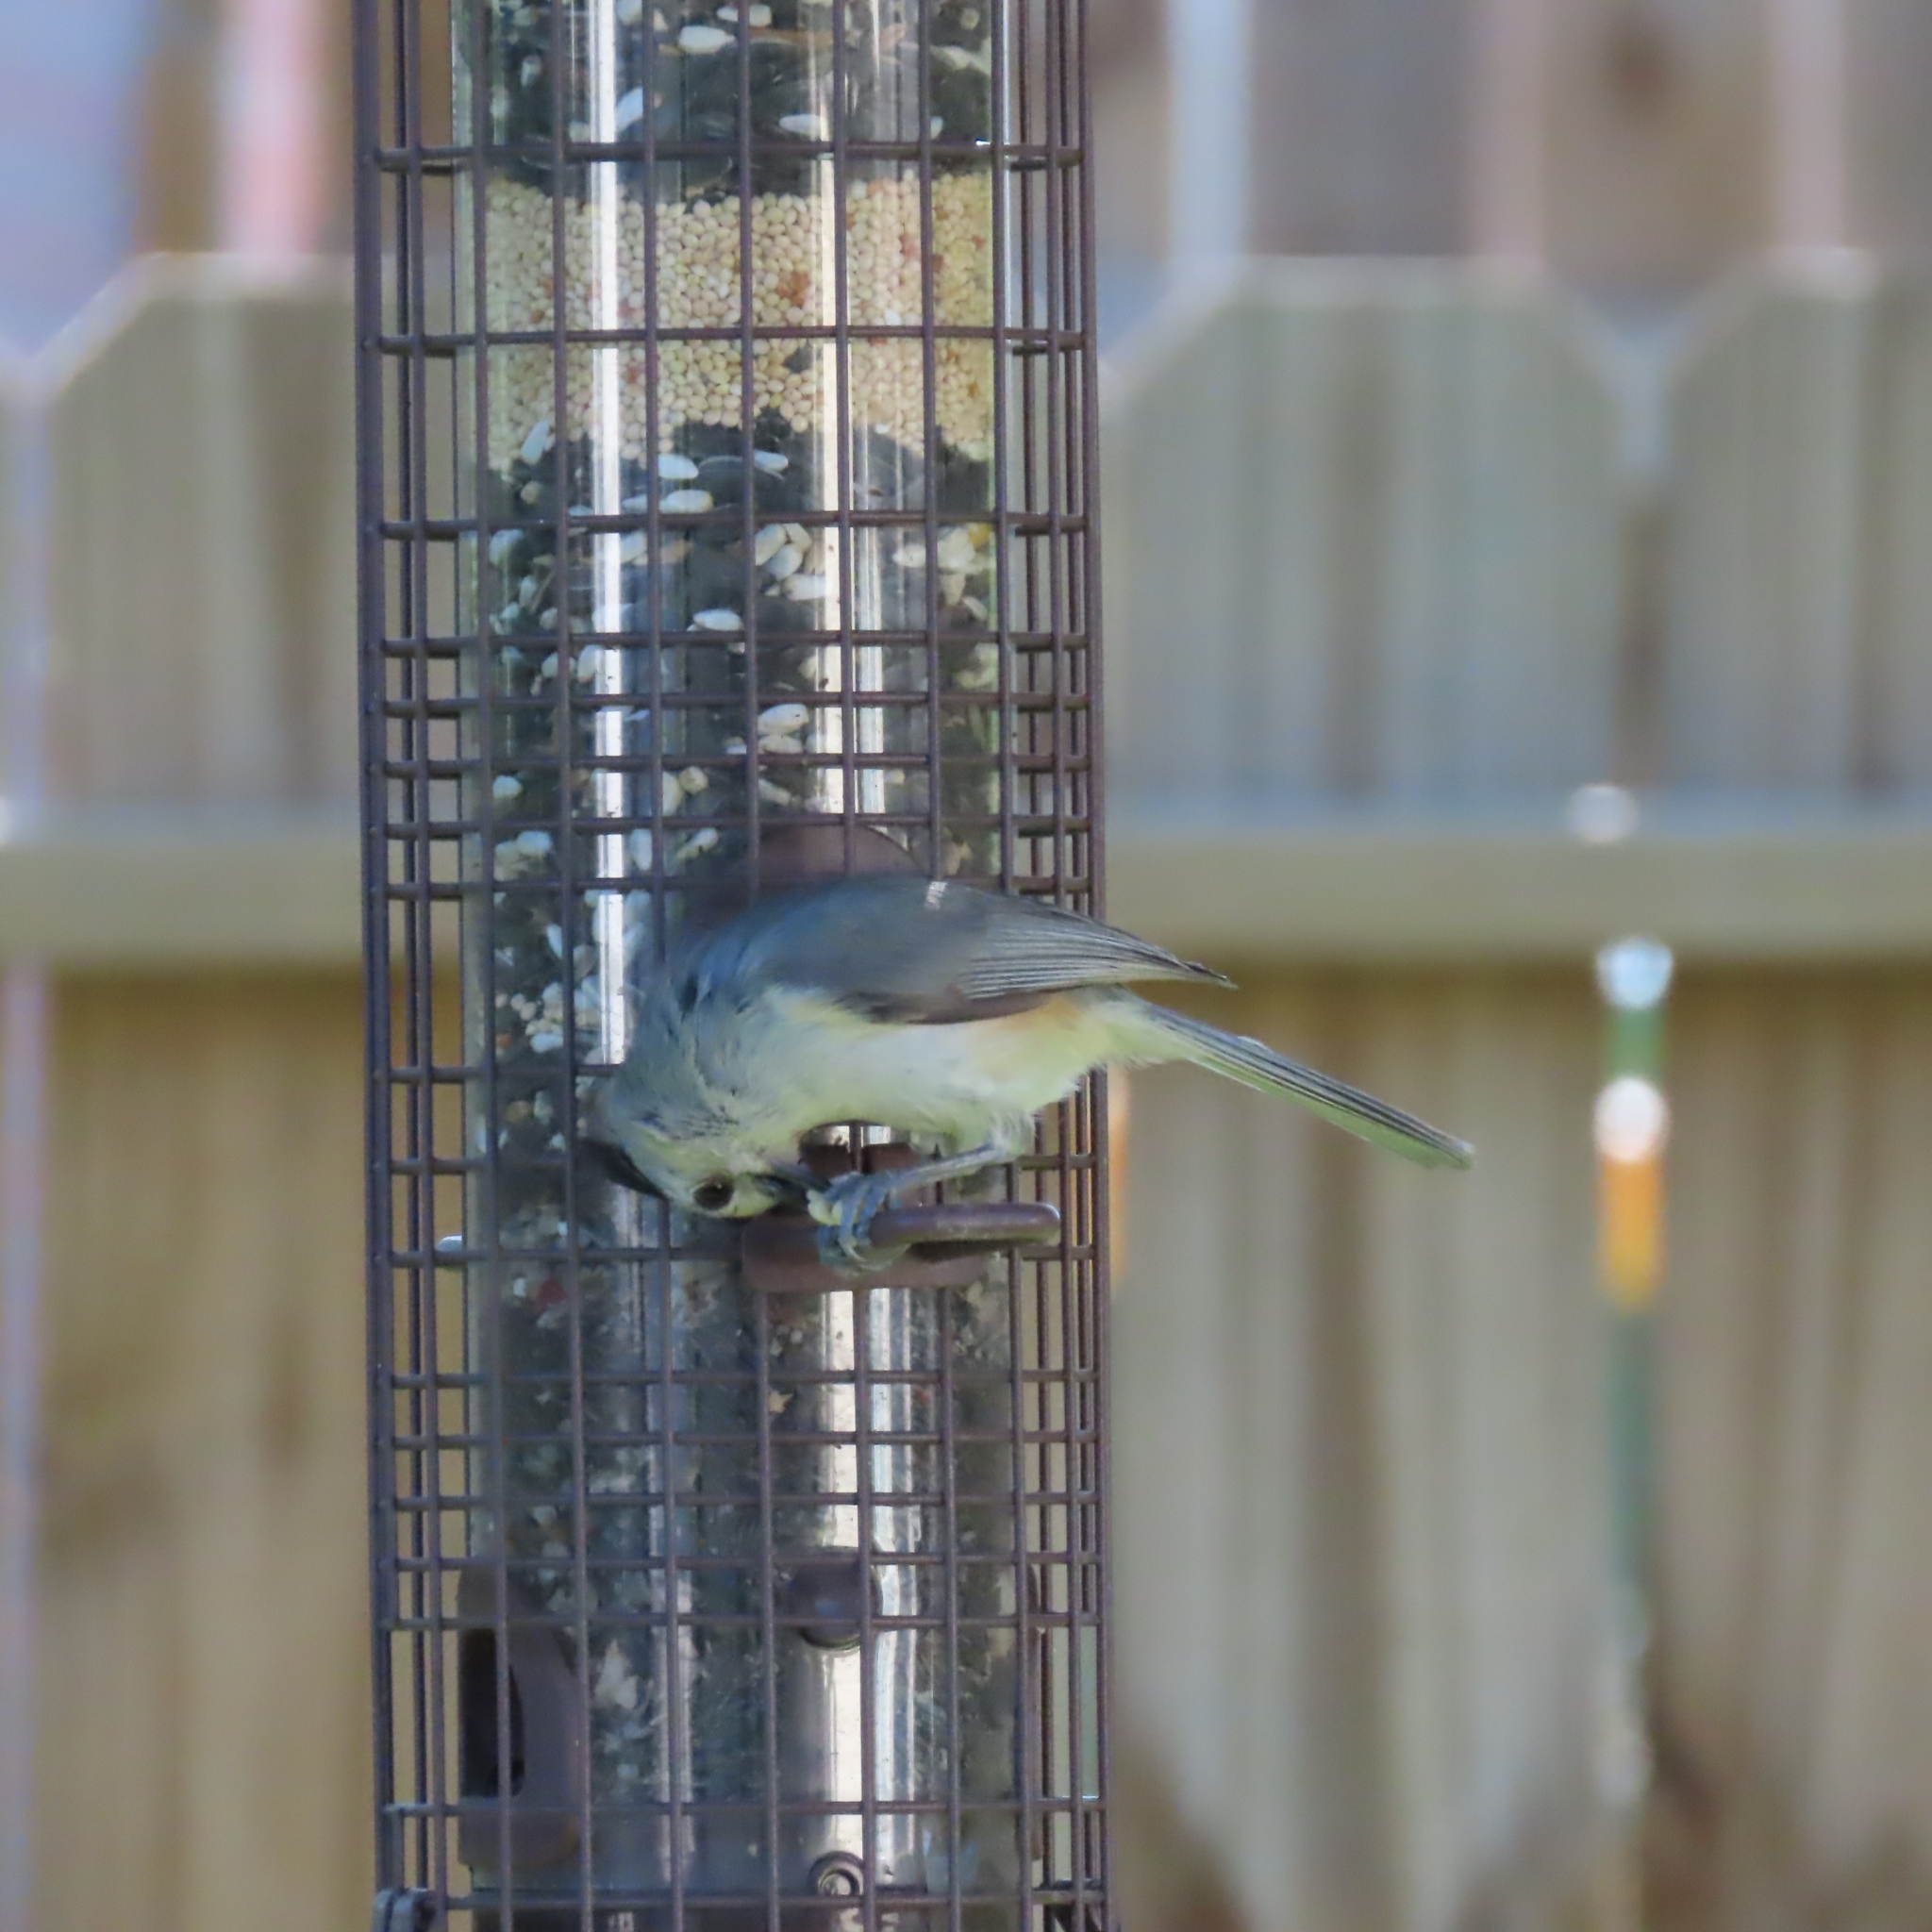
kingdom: Animalia
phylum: Chordata
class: Aves
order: Passeriformes
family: Paridae
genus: Baeolophus
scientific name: Baeolophus atricristatus
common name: Black-crested titmouse
